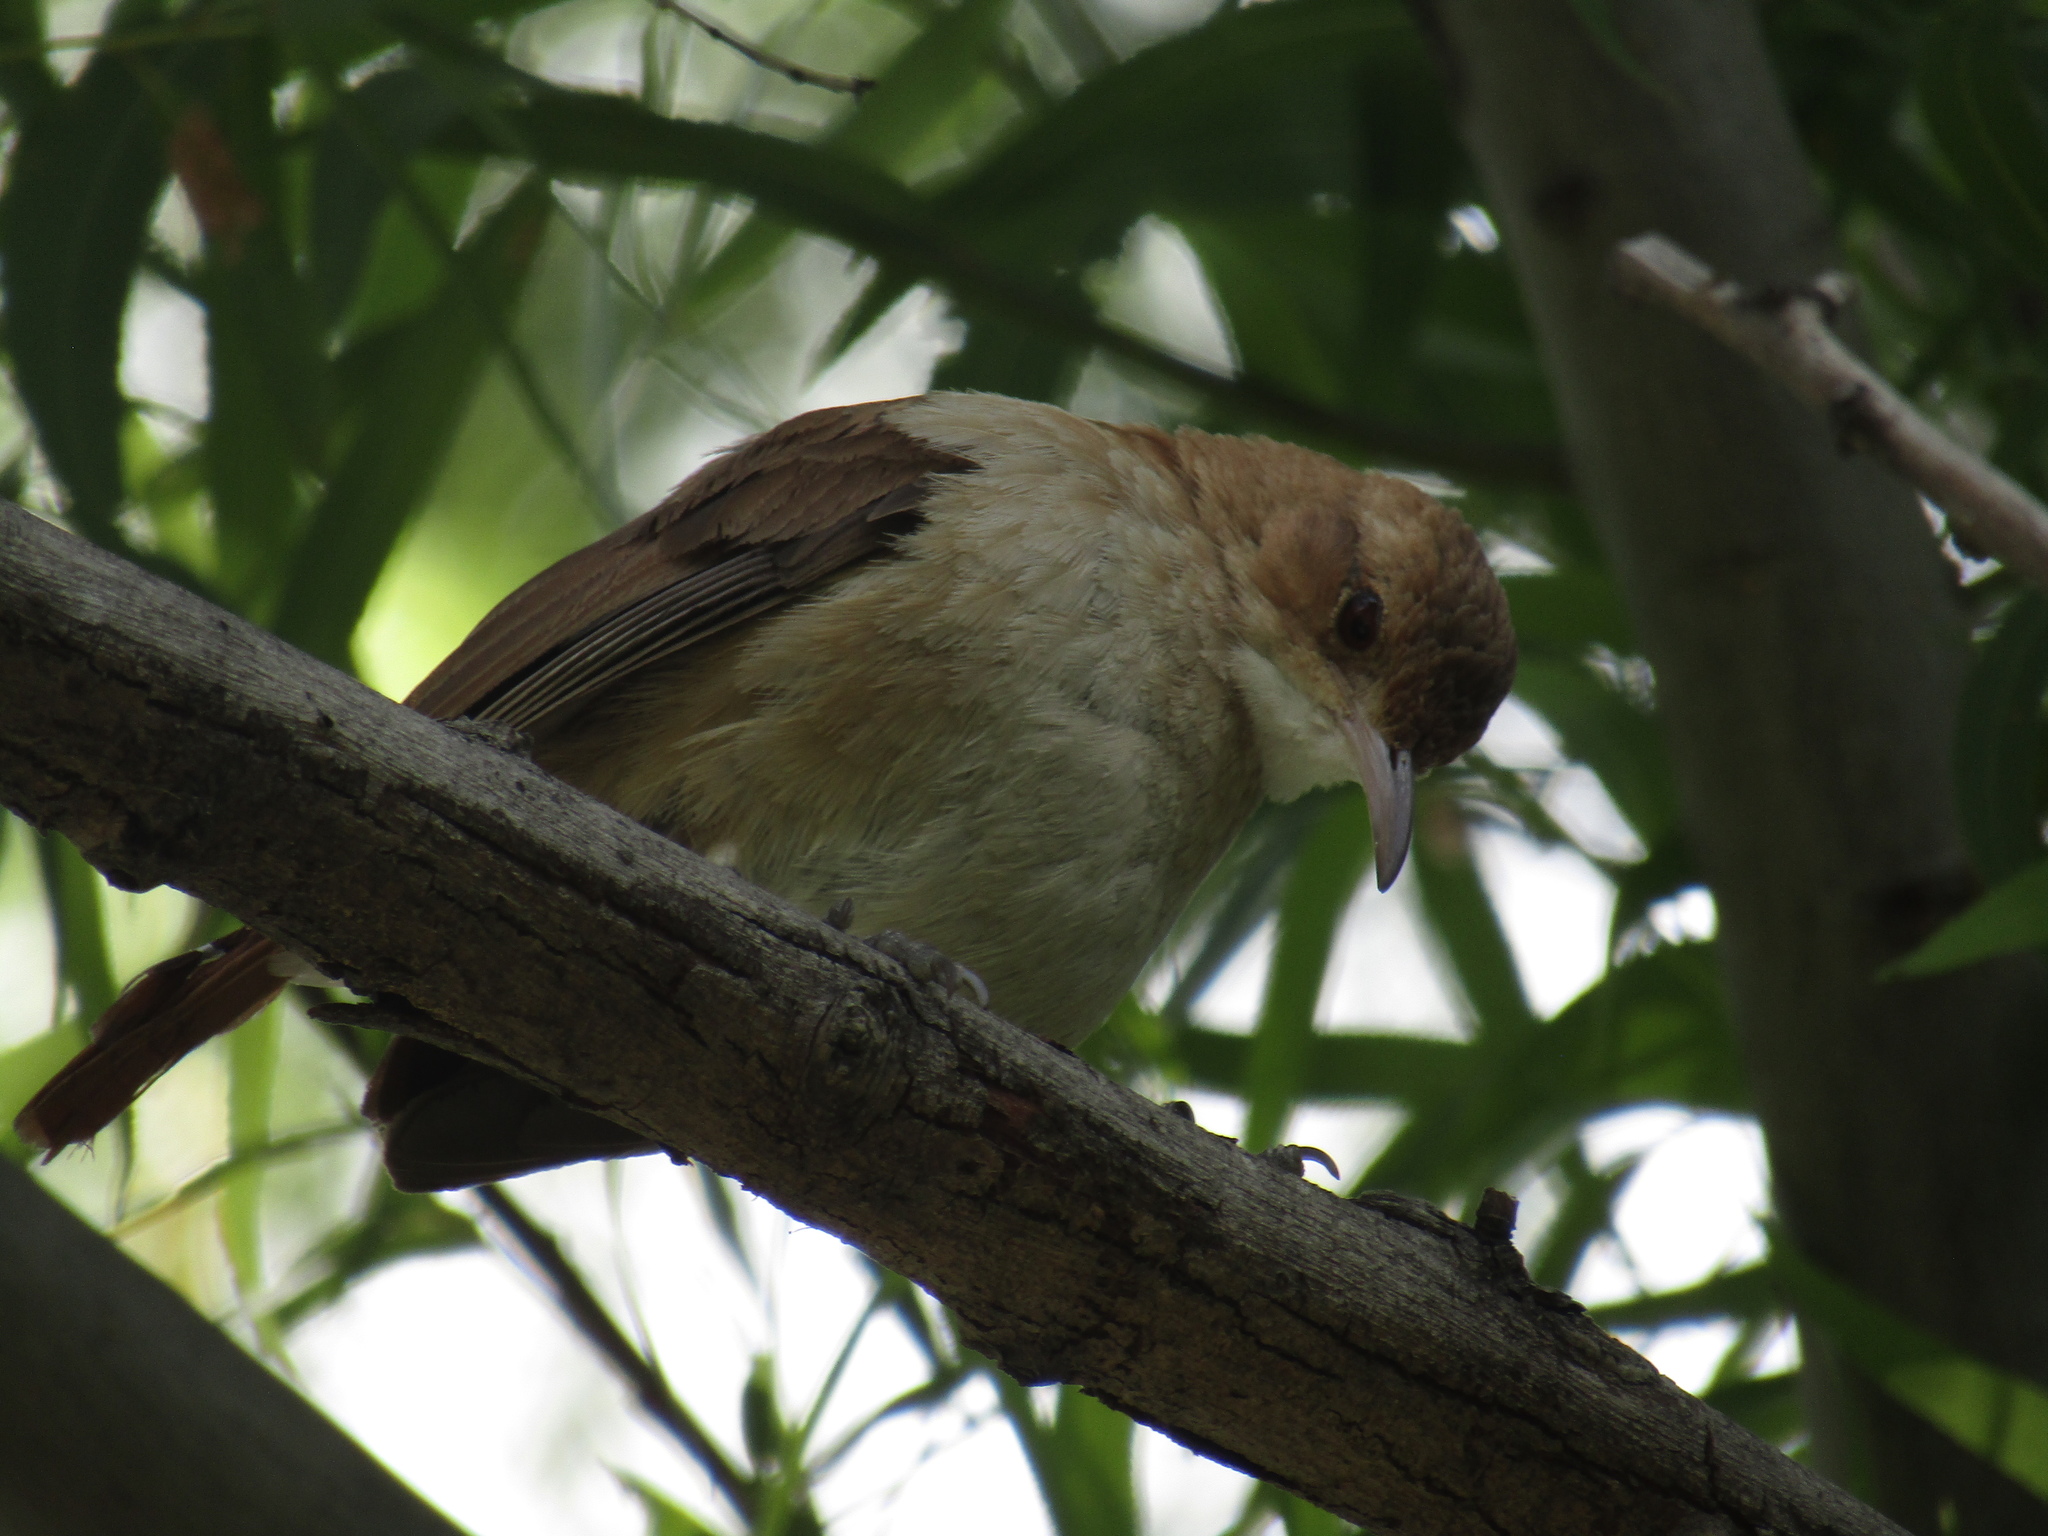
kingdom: Animalia
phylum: Chordata
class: Aves
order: Passeriformes
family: Furnariidae
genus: Furnarius
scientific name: Furnarius rufus
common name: Rufous hornero
